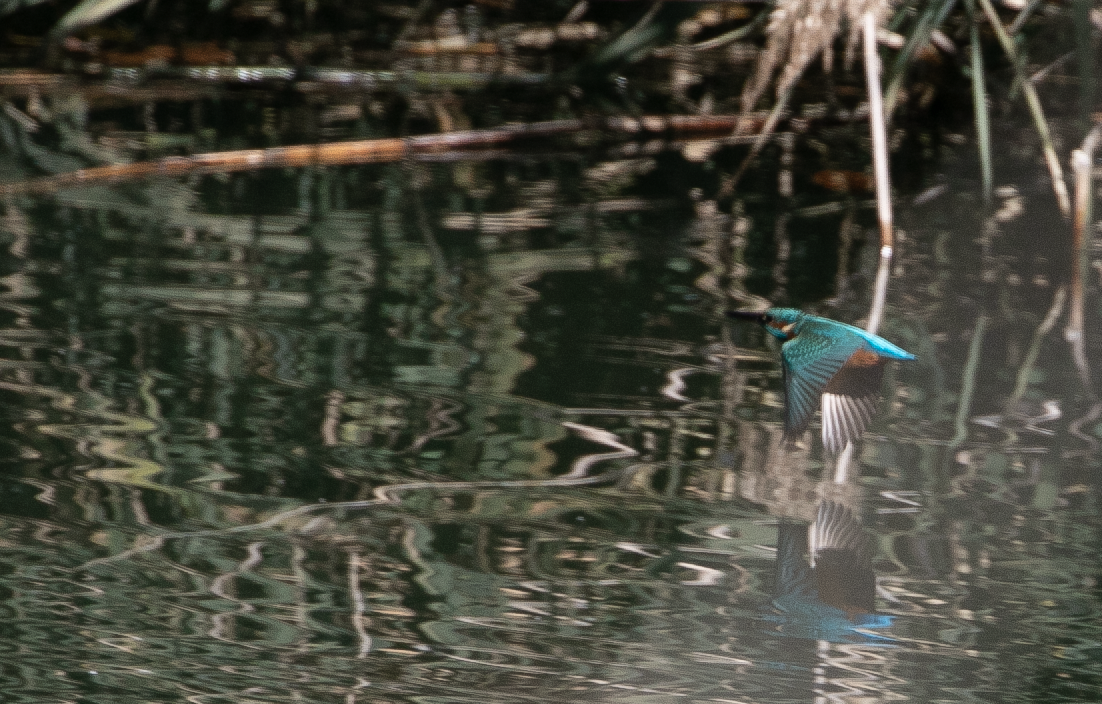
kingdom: Animalia
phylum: Chordata
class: Aves
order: Coraciiformes
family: Alcedinidae
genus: Alcedo
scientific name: Alcedo atthis
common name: Common kingfisher
